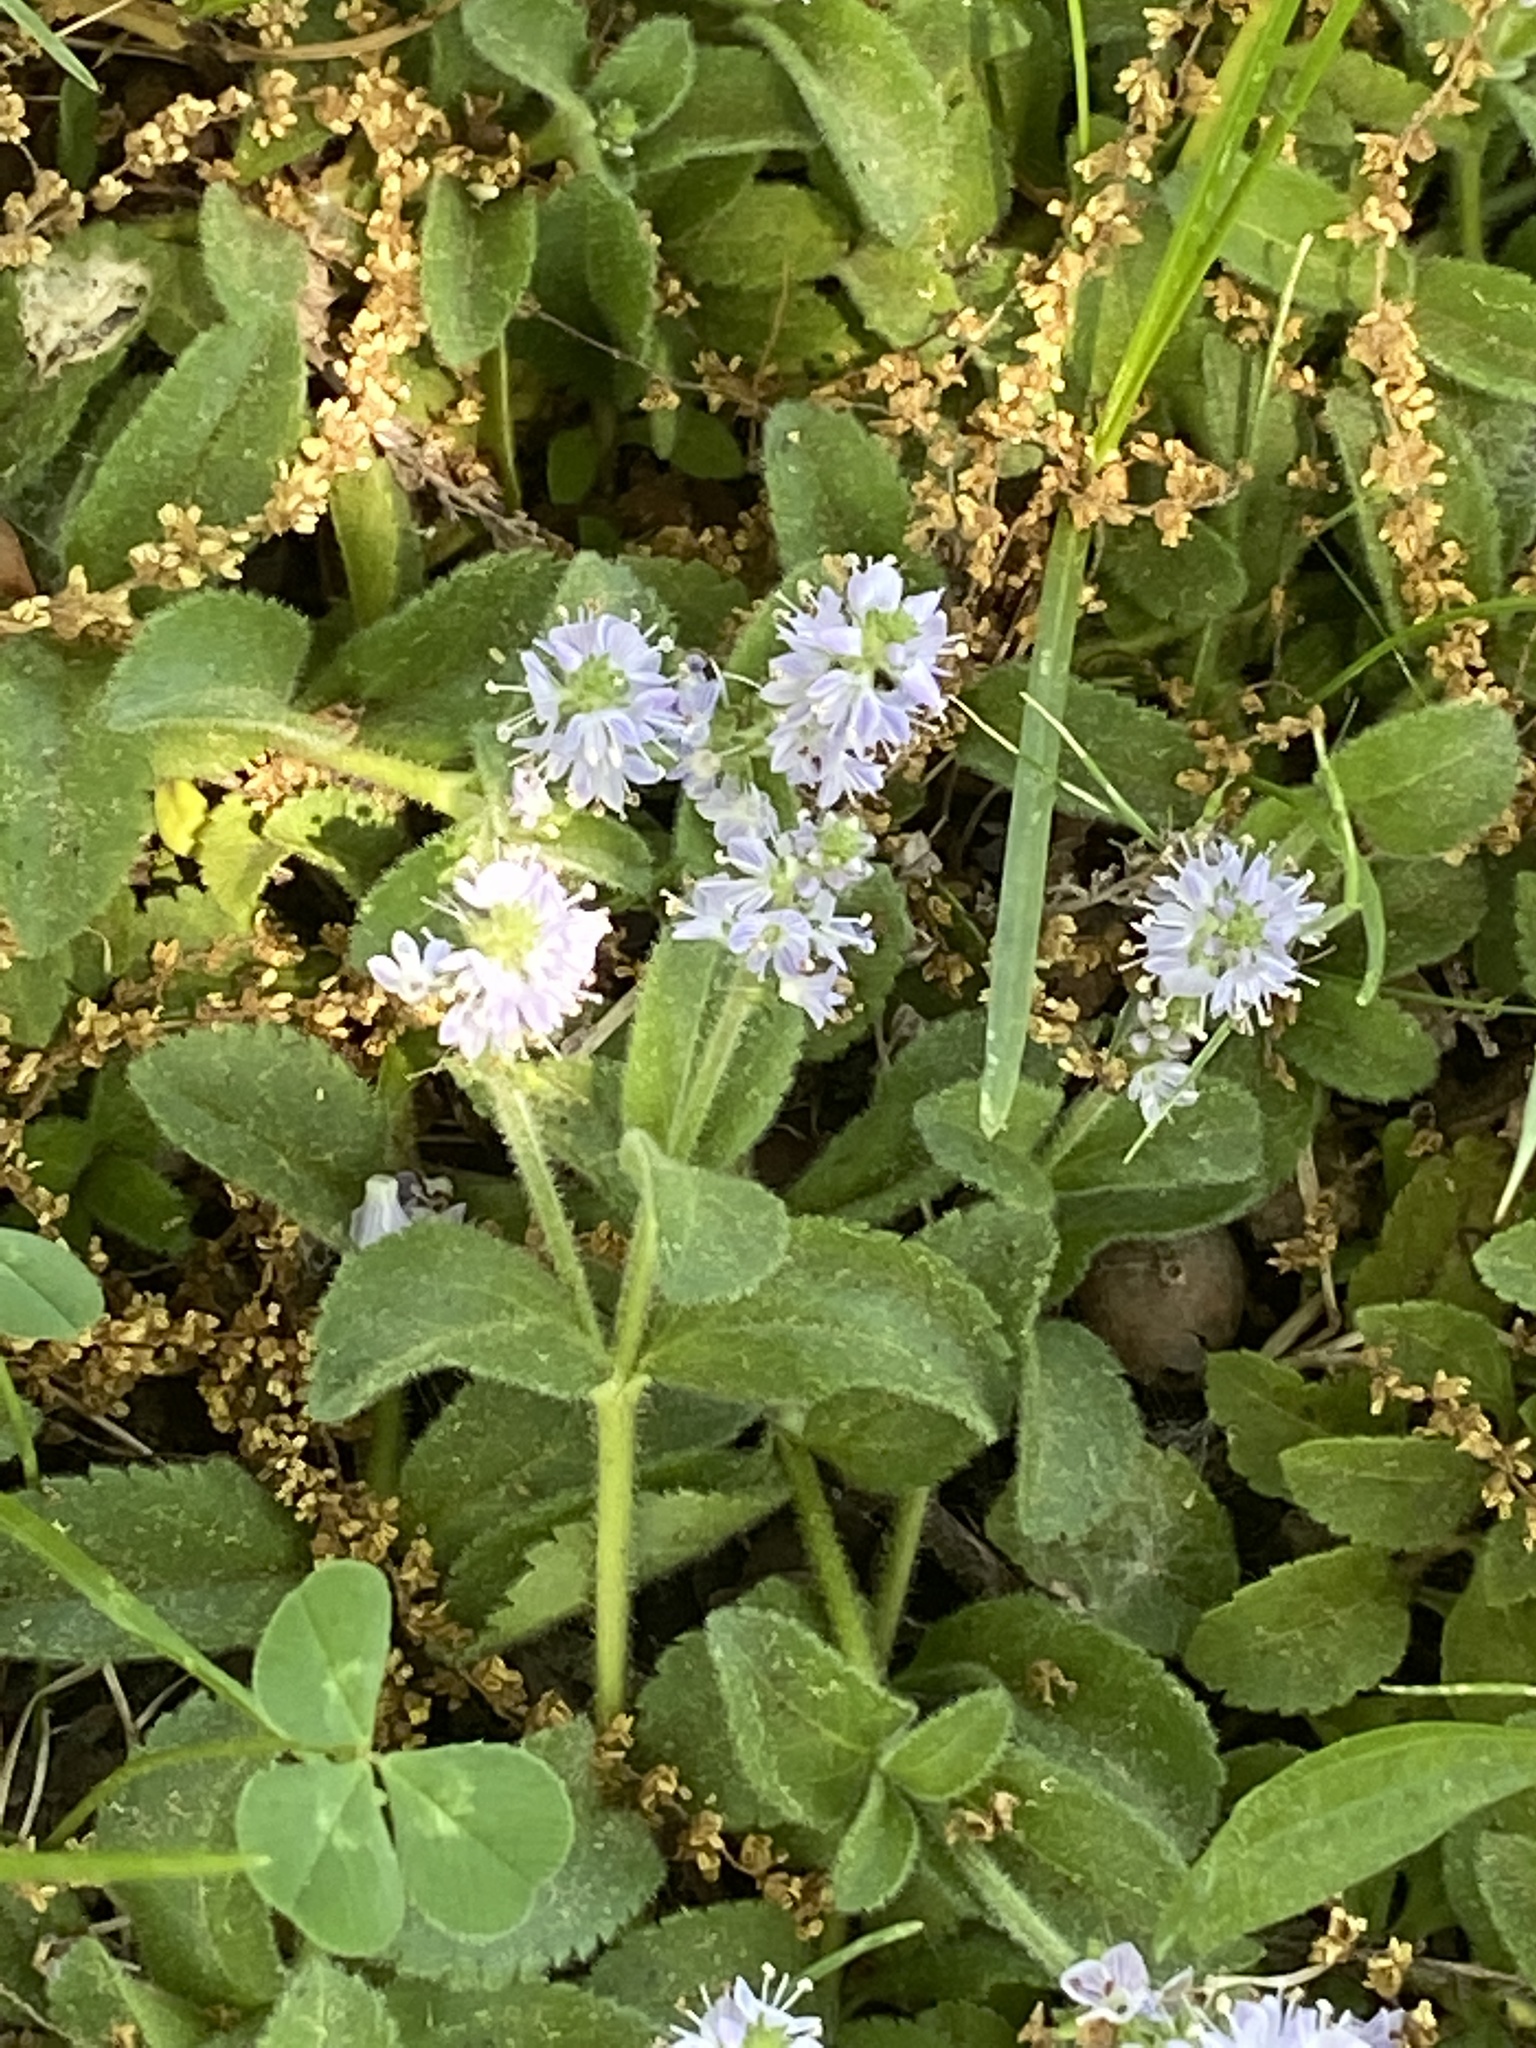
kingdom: Plantae
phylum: Tracheophyta
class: Magnoliopsida
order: Lamiales
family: Plantaginaceae
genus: Veronica
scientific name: Veronica officinalis
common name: Common speedwell
